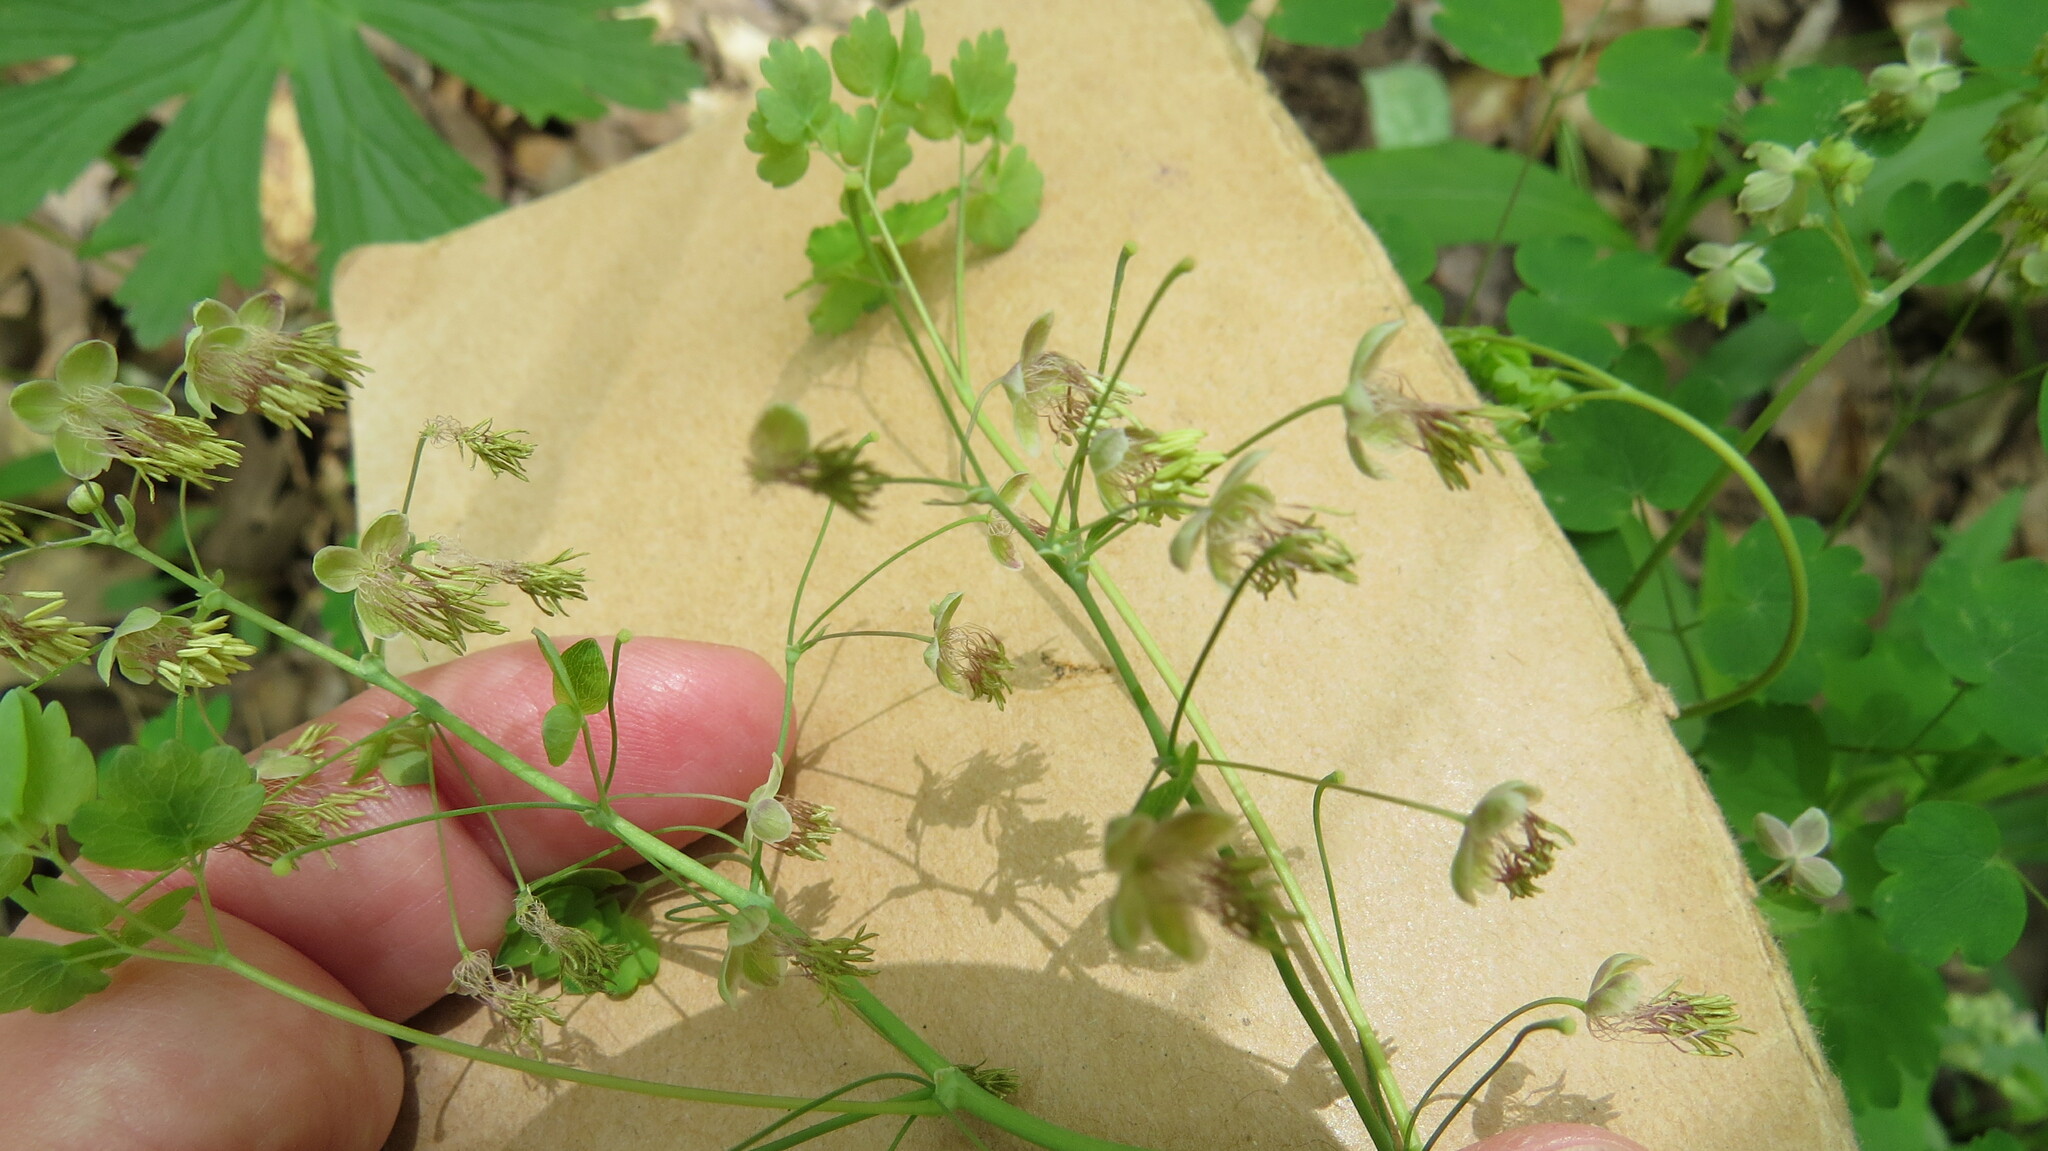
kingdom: Plantae
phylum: Tracheophyta
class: Magnoliopsida
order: Ranunculales
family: Ranunculaceae
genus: Thalictrum
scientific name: Thalictrum dioicum
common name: Early meadow-rue
